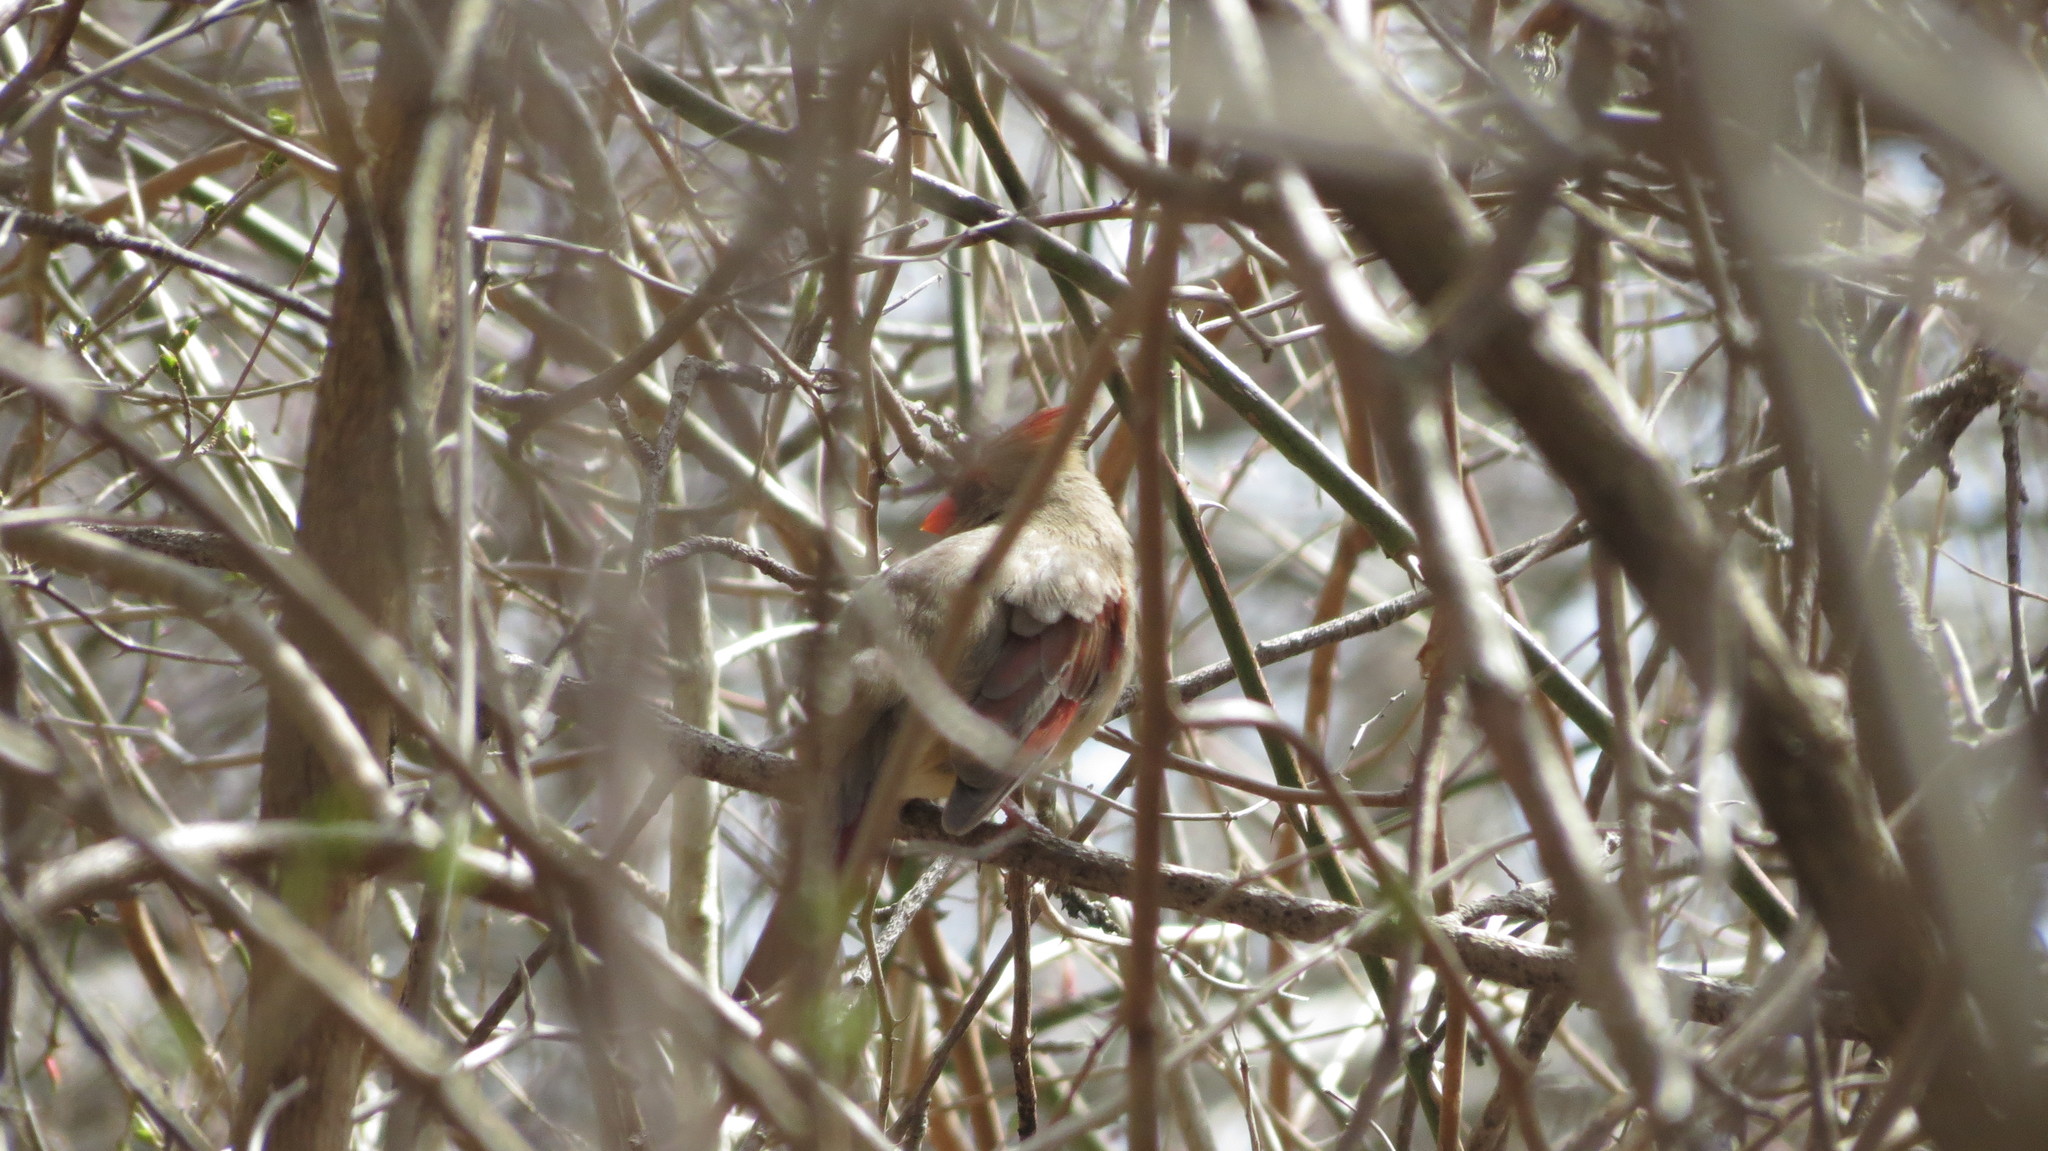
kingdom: Animalia
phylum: Chordata
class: Aves
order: Passeriformes
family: Cardinalidae
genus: Cardinalis
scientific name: Cardinalis cardinalis
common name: Northern cardinal
